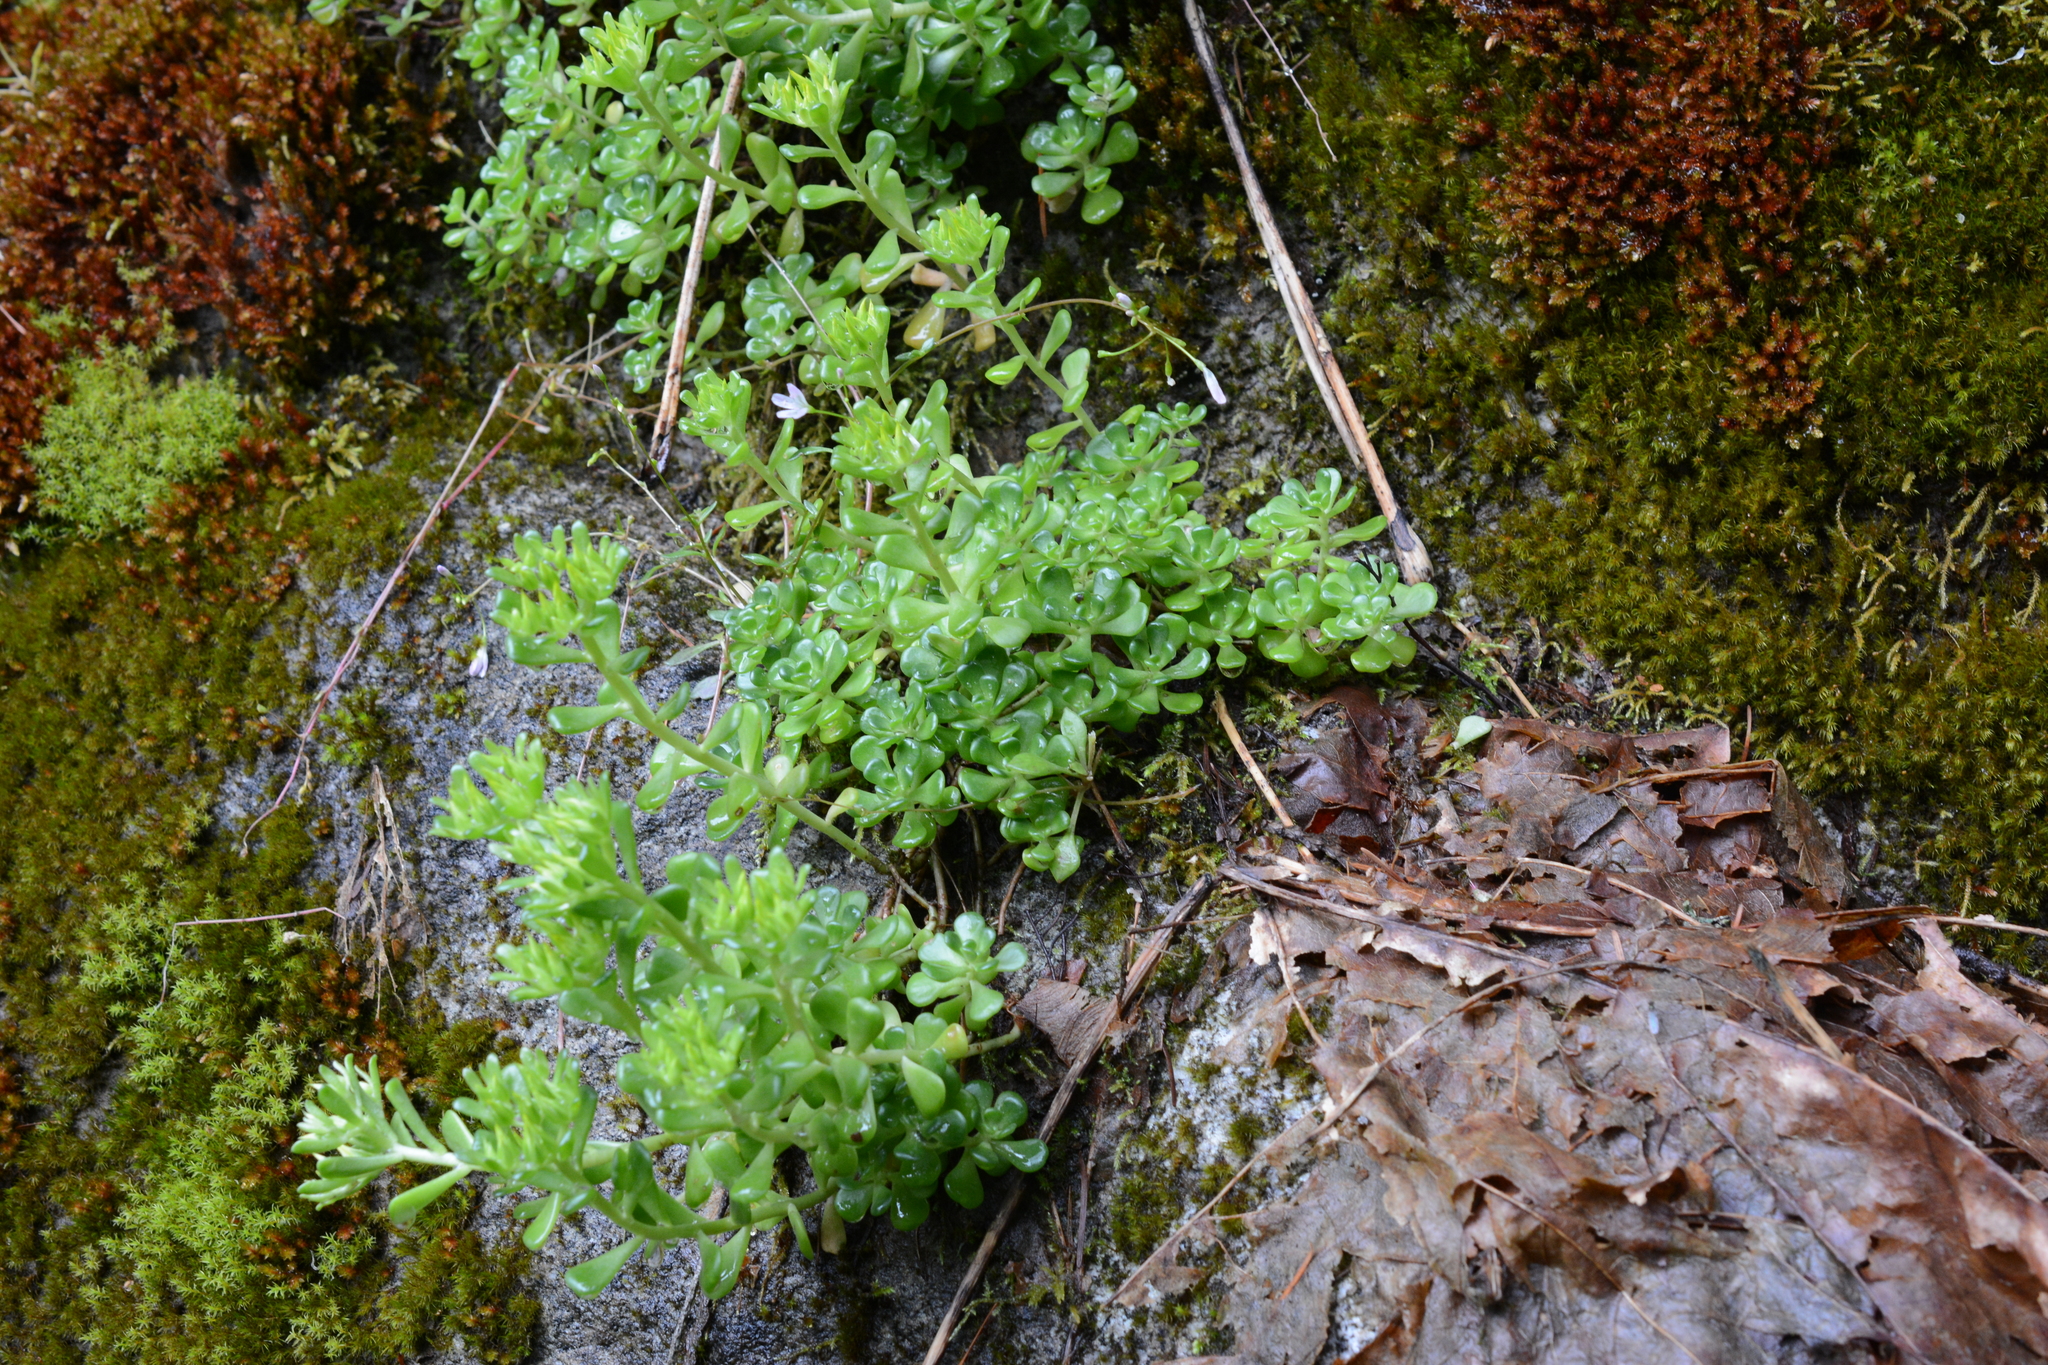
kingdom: Plantae
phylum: Tracheophyta
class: Magnoliopsida
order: Saxifragales
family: Crassulaceae
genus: Sedum
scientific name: Sedum oreganum
